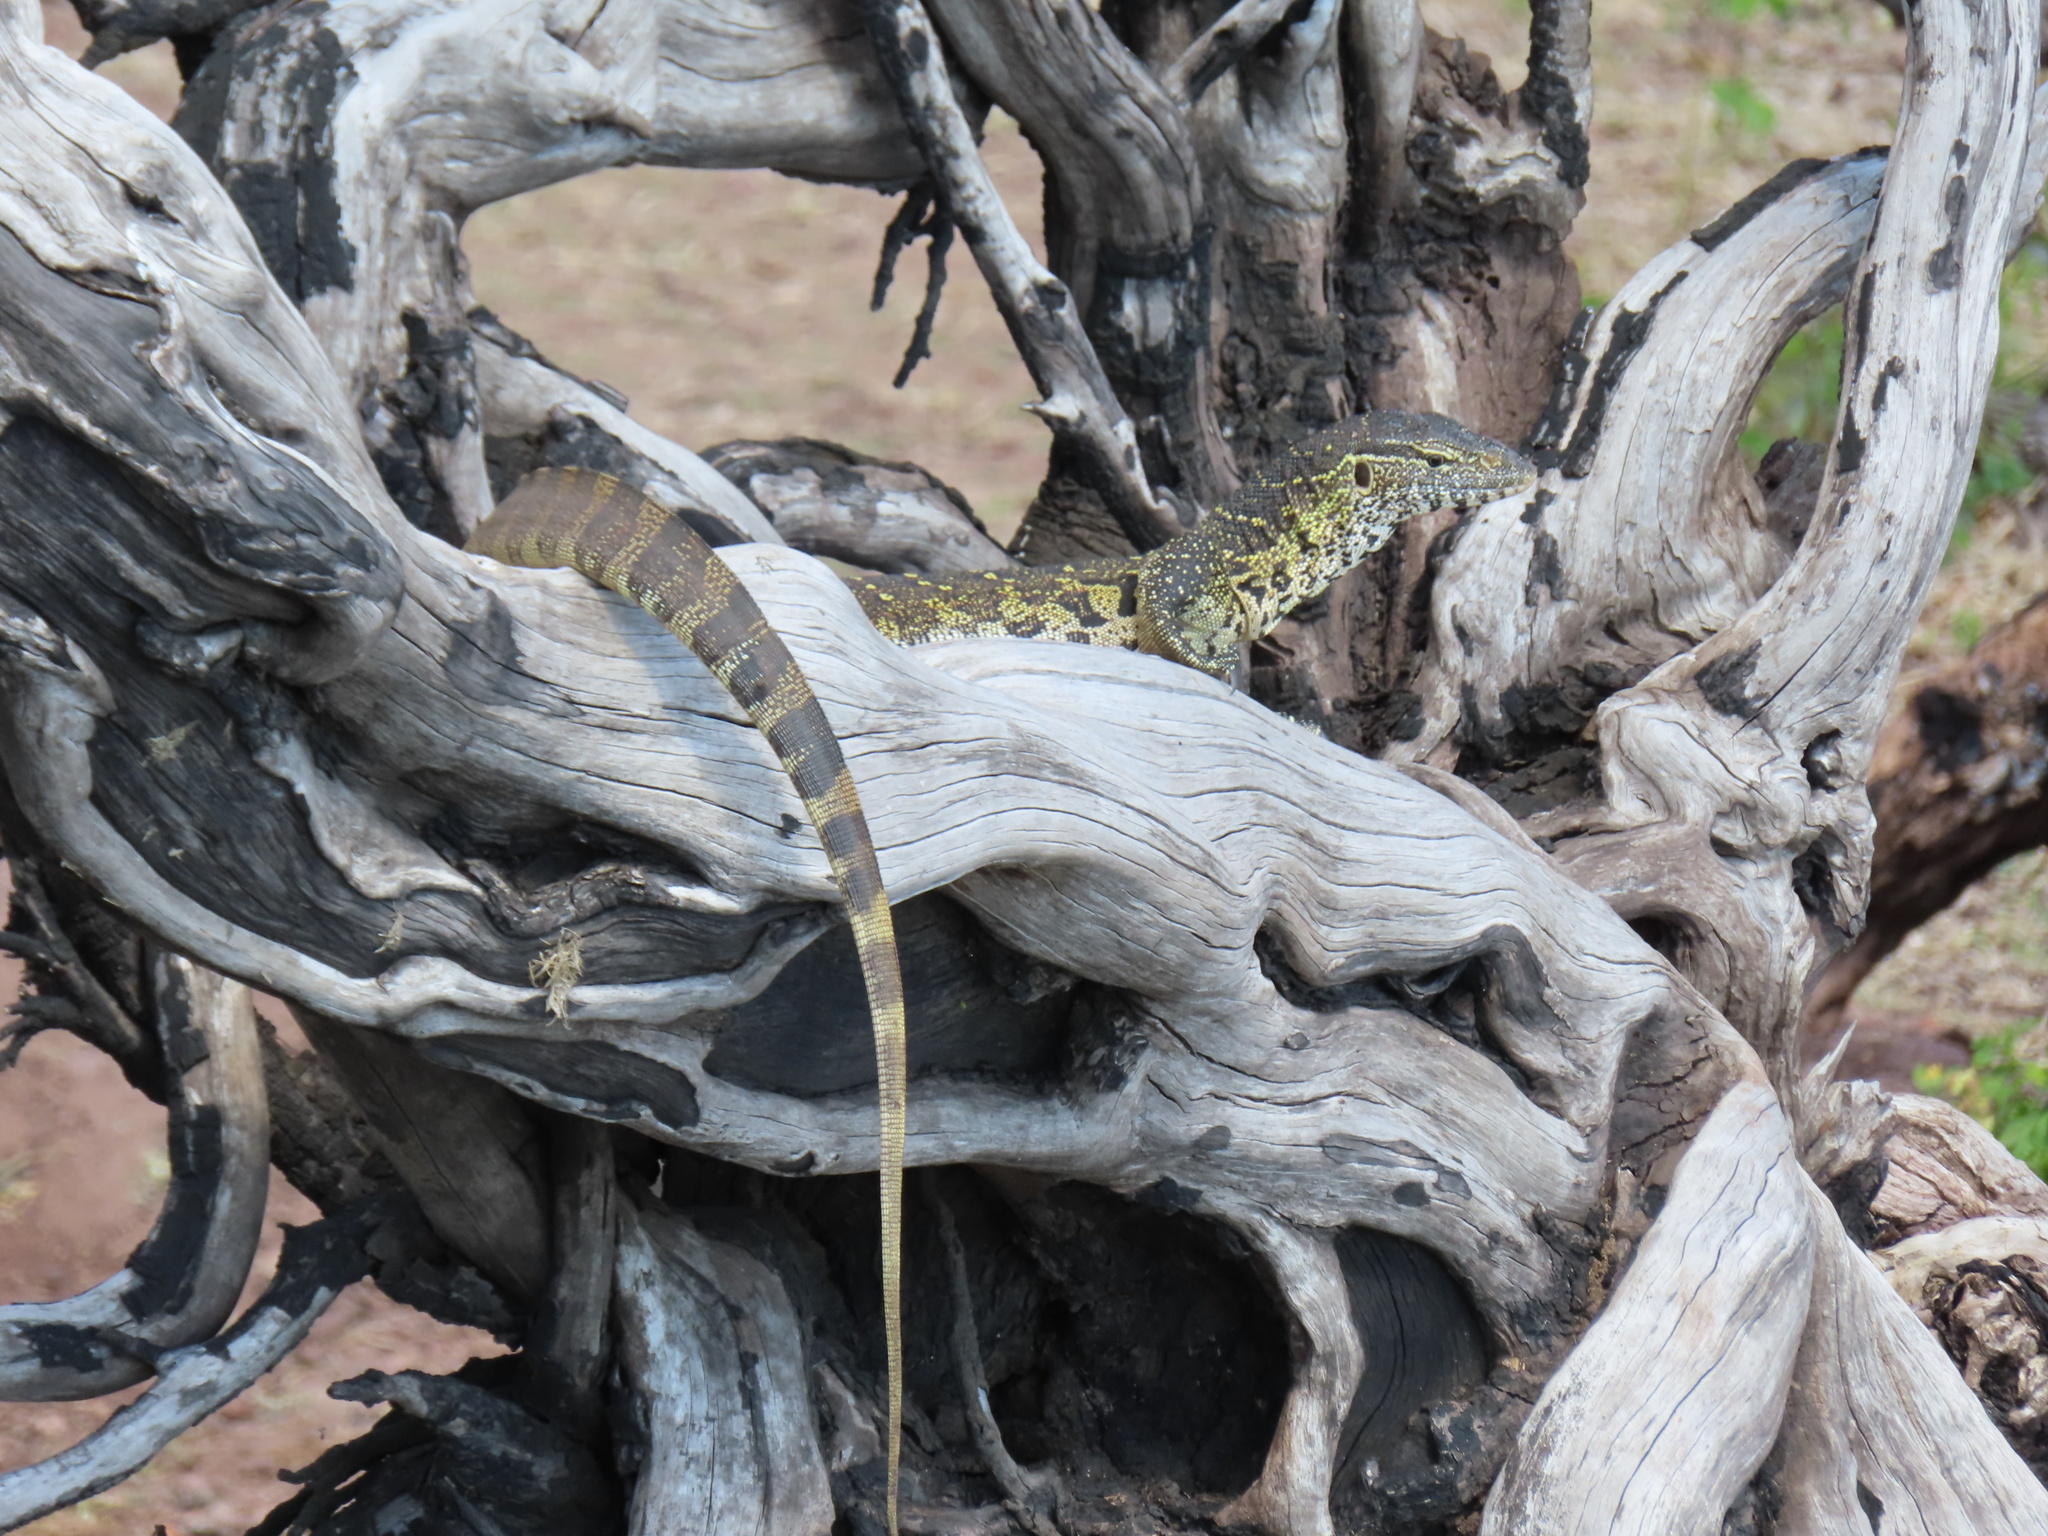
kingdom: Animalia
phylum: Chordata
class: Squamata
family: Varanidae
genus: Varanus
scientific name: Varanus niloticus
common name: Nile monitor
